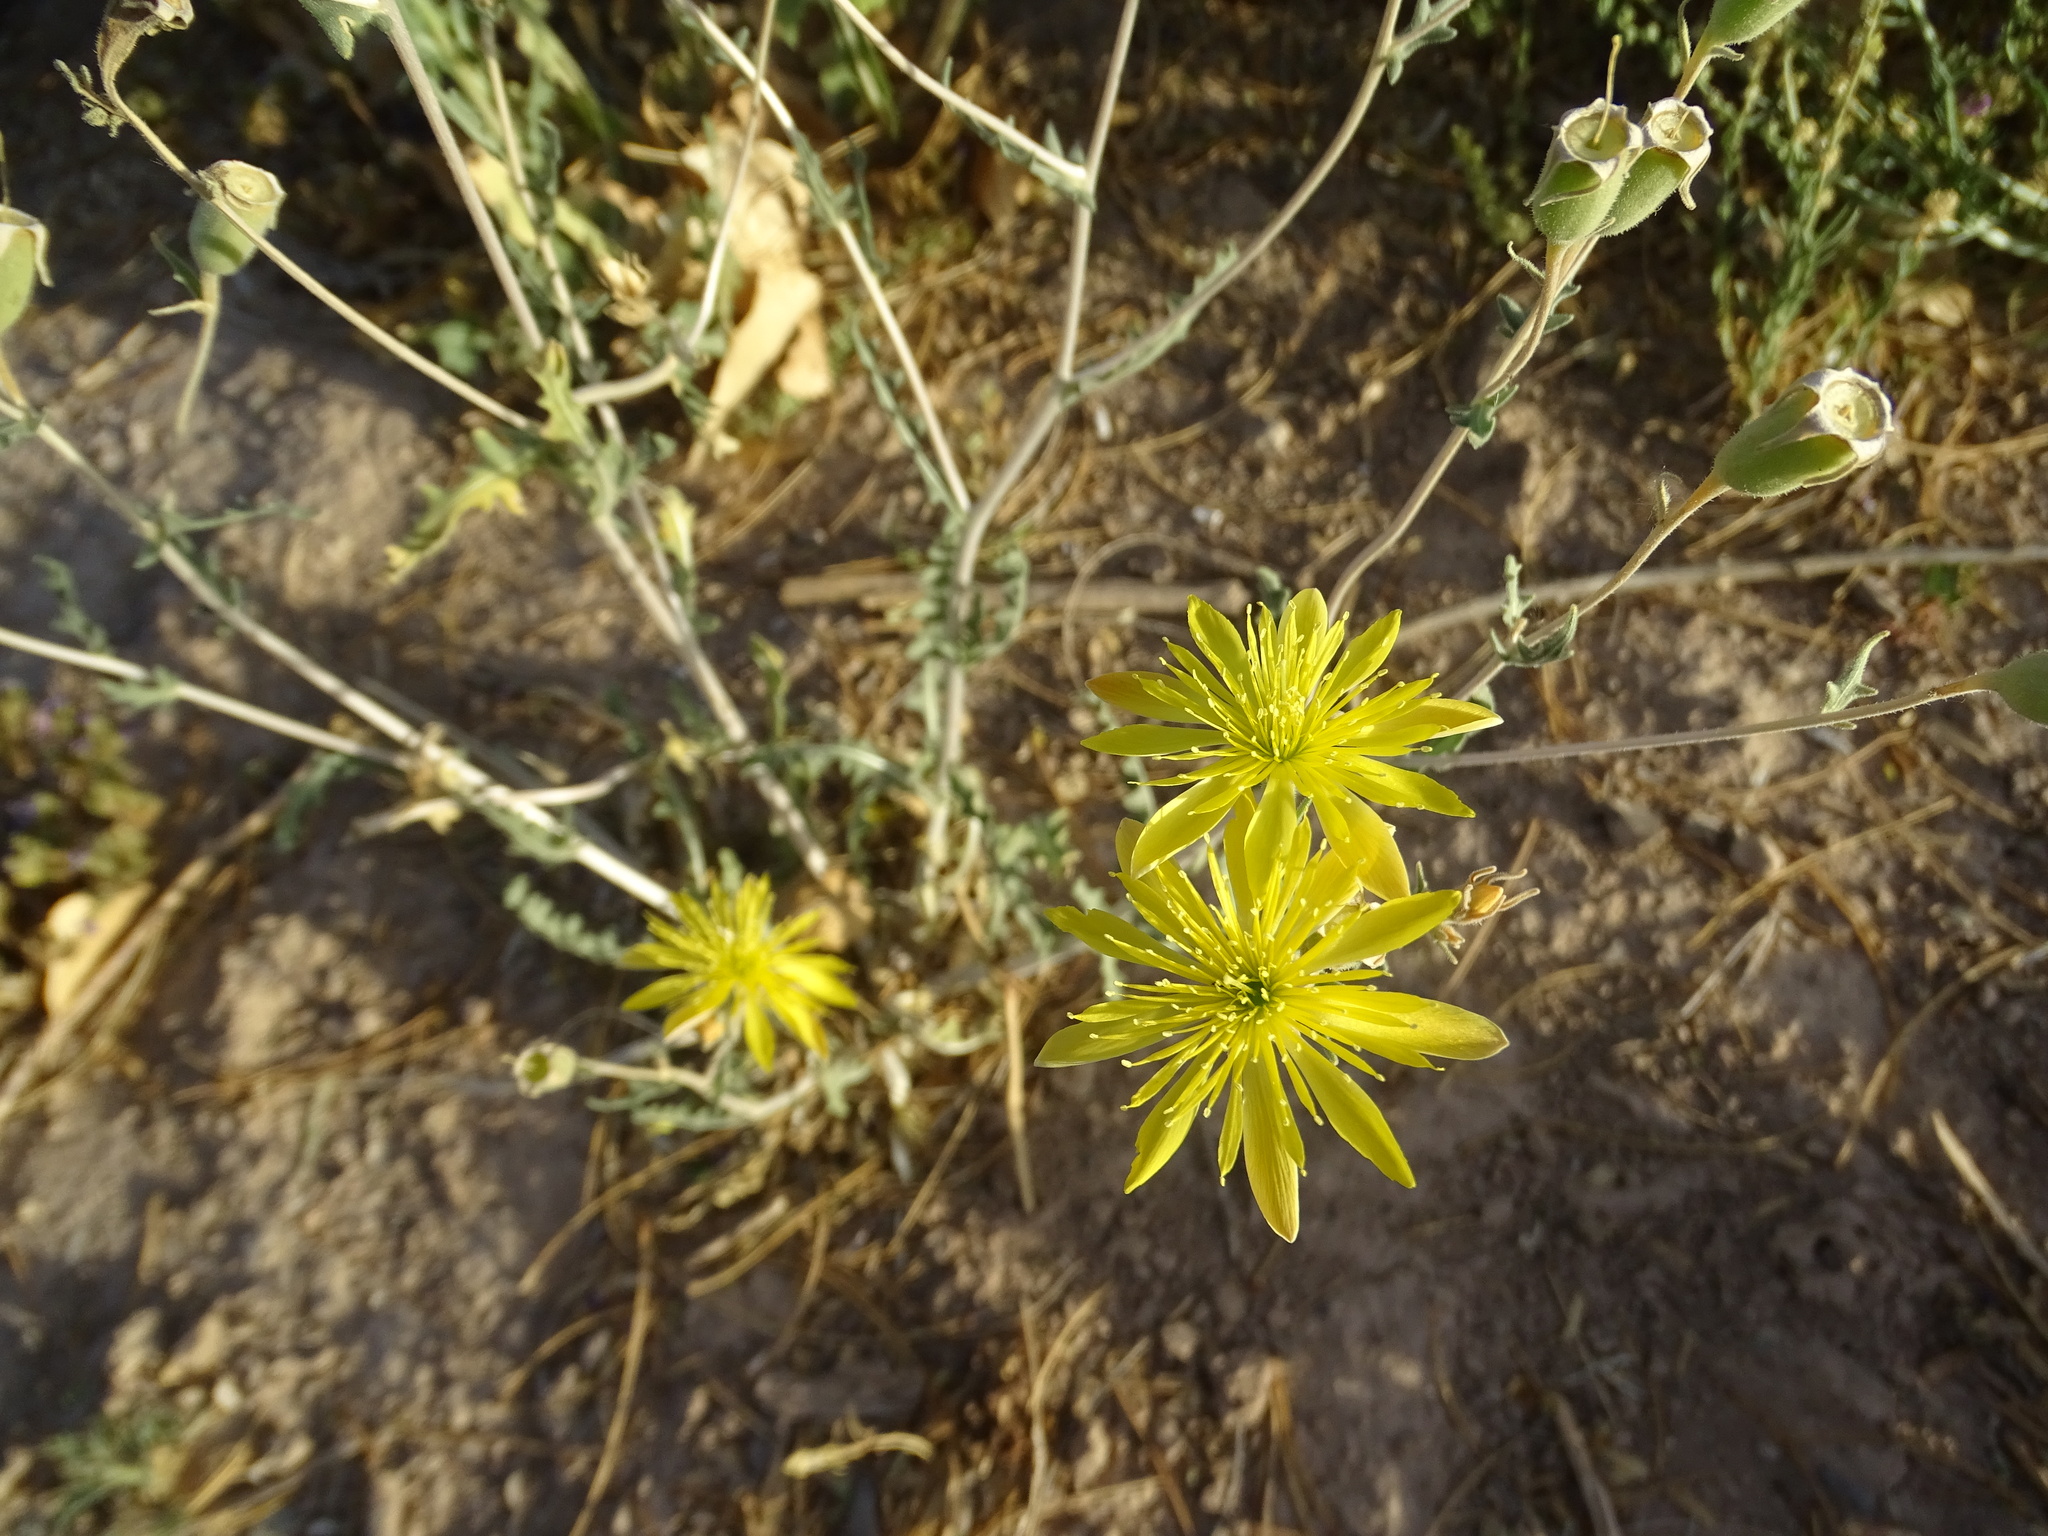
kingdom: Plantae
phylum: Tracheophyta
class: Magnoliopsida
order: Cornales
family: Loasaceae
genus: Mentzelia
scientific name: Mentzelia longiloba
